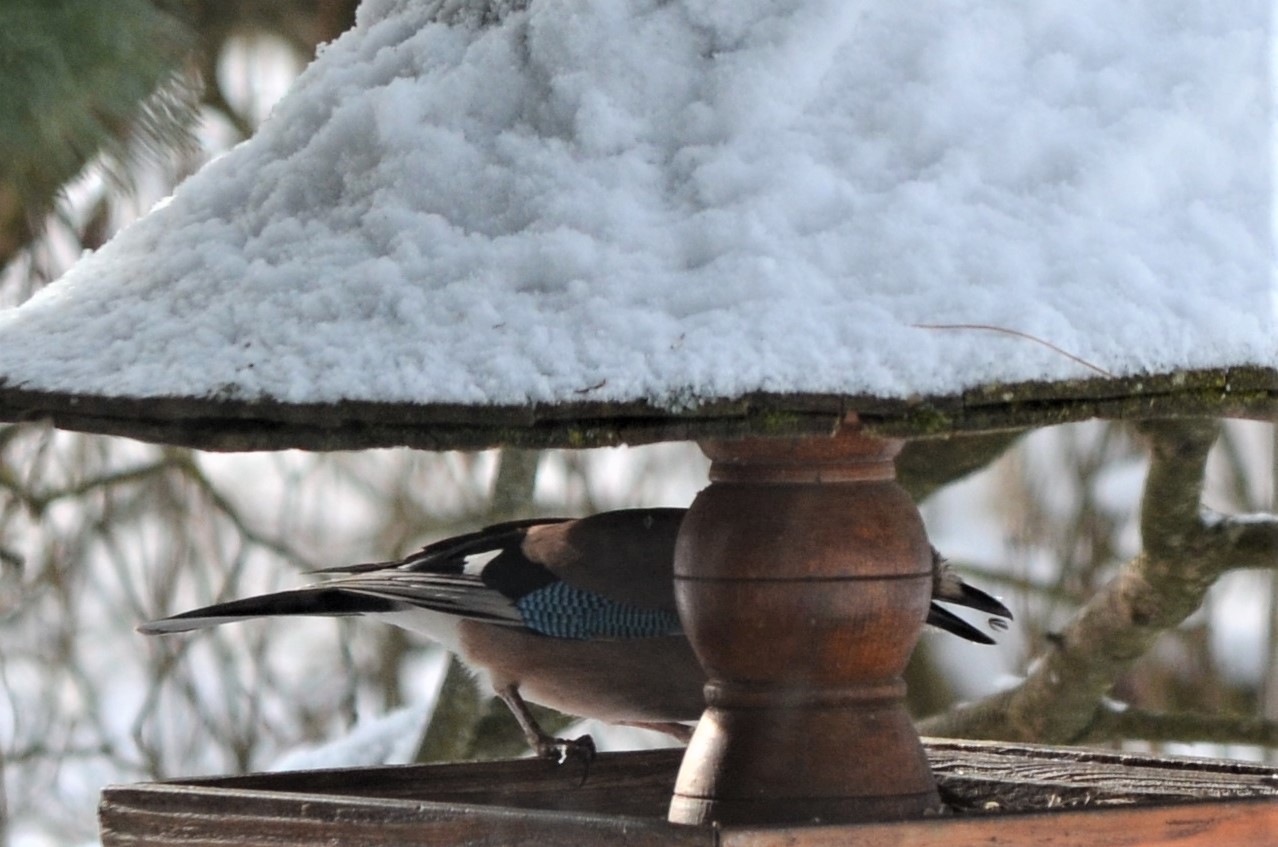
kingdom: Animalia
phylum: Chordata
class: Aves
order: Passeriformes
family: Corvidae
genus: Garrulus
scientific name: Garrulus glandarius
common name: Eurasian jay
